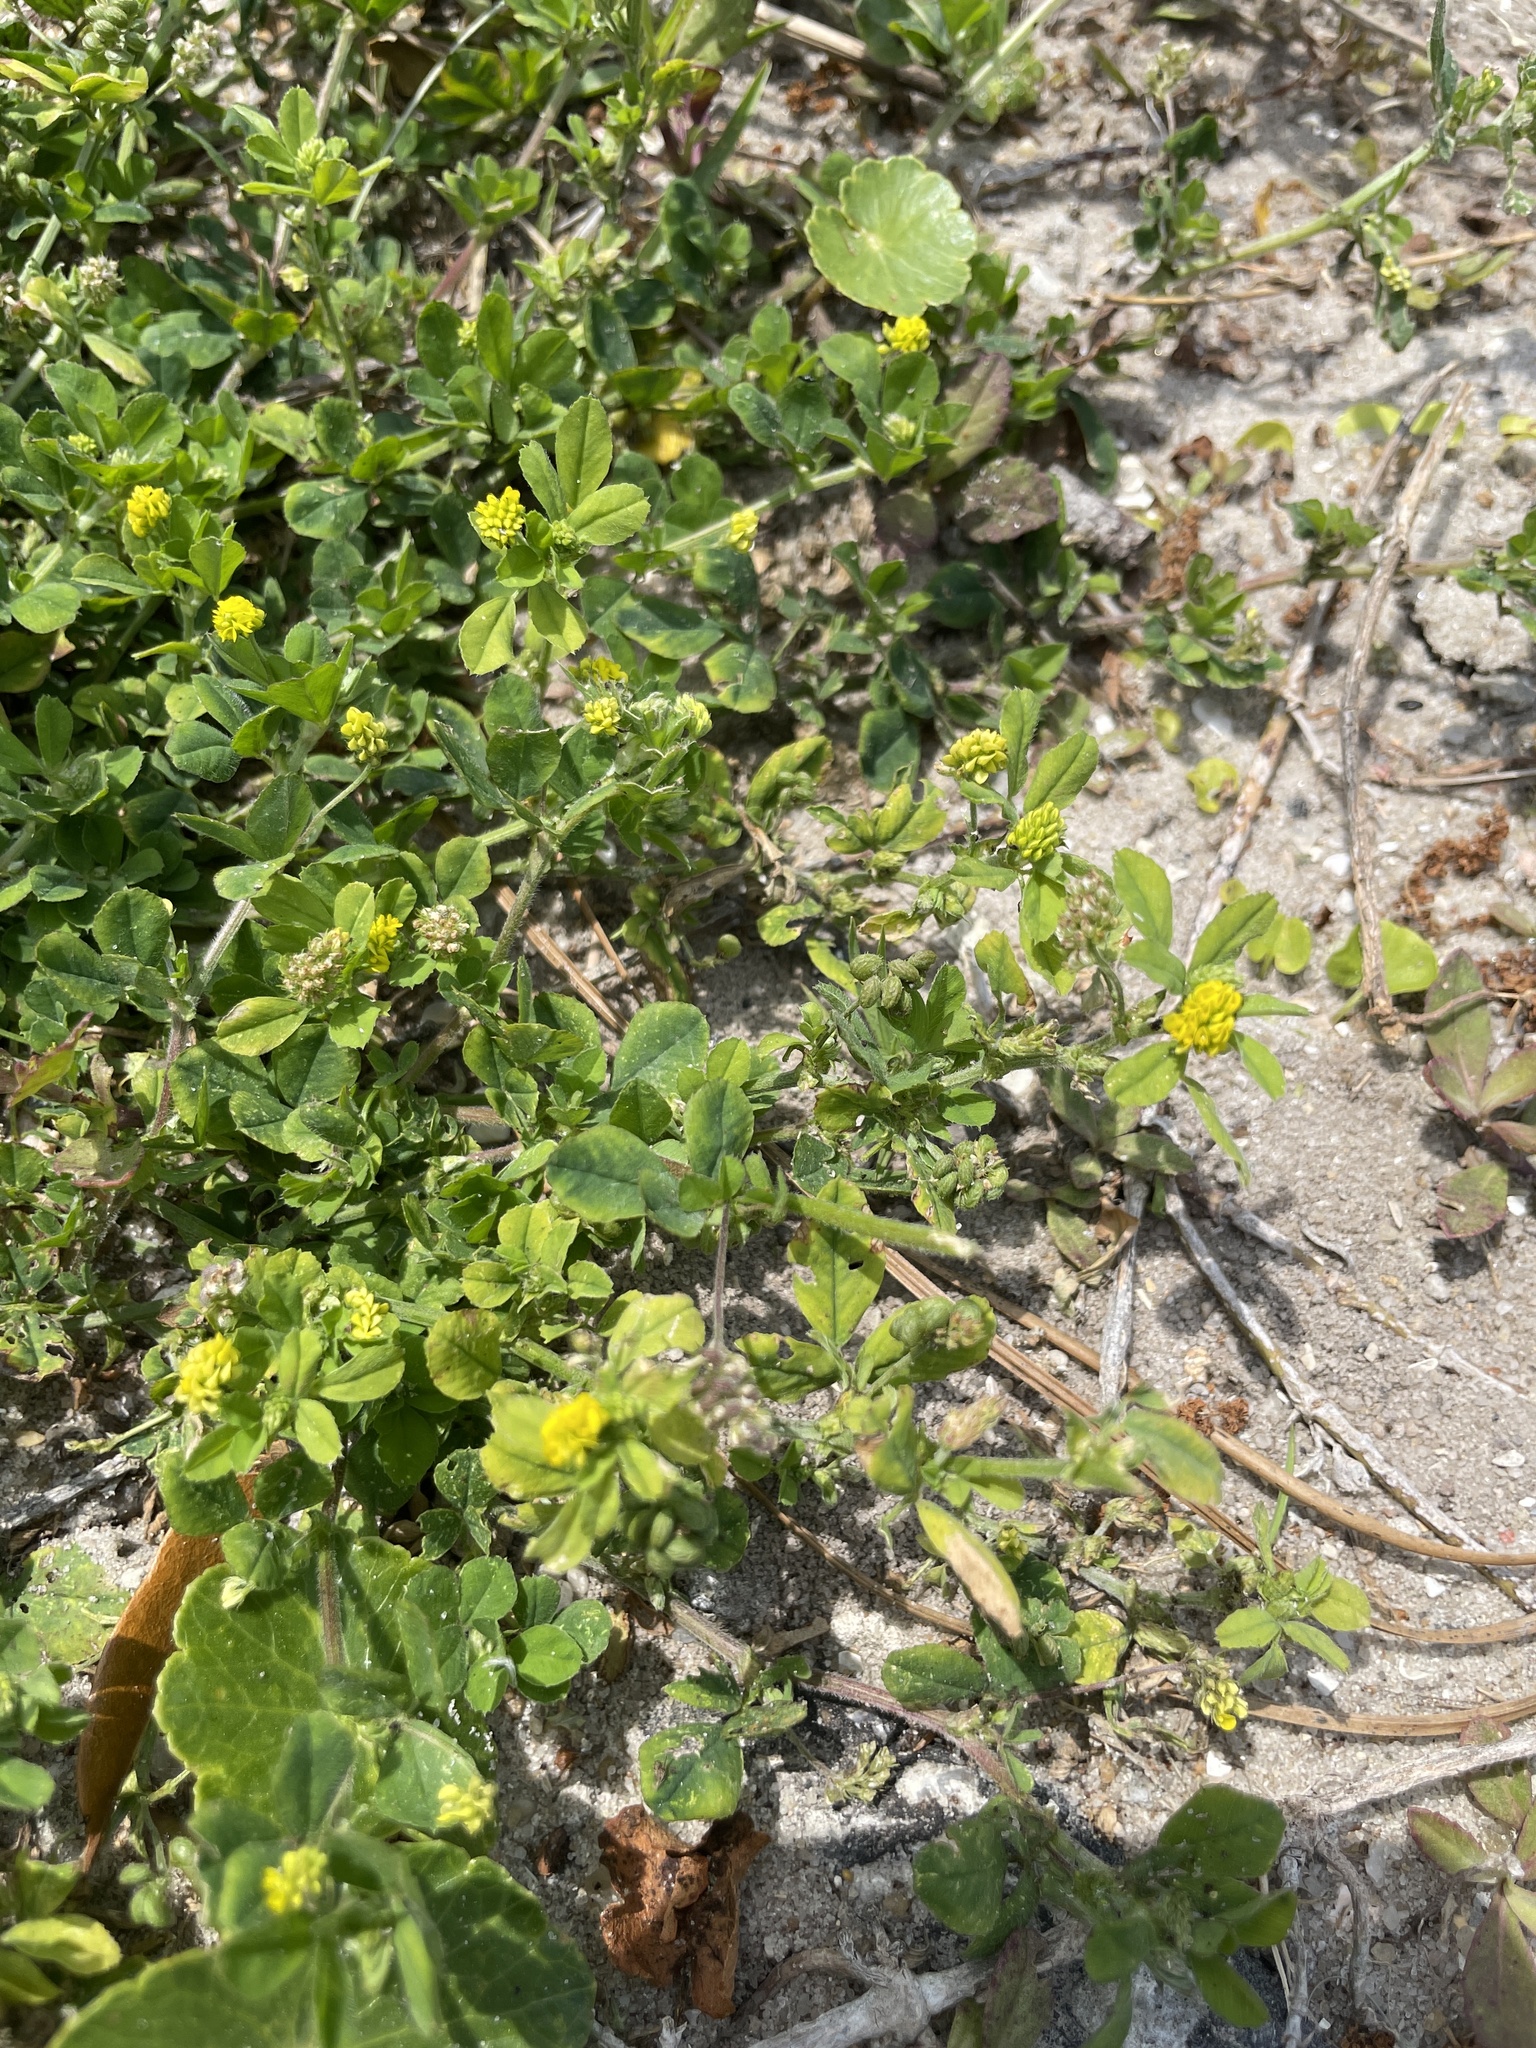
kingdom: Plantae
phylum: Tracheophyta
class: Magnoliopsida
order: Fabales
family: Fabaceae
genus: Medicago
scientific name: Medicago lupulina
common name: Black medick
